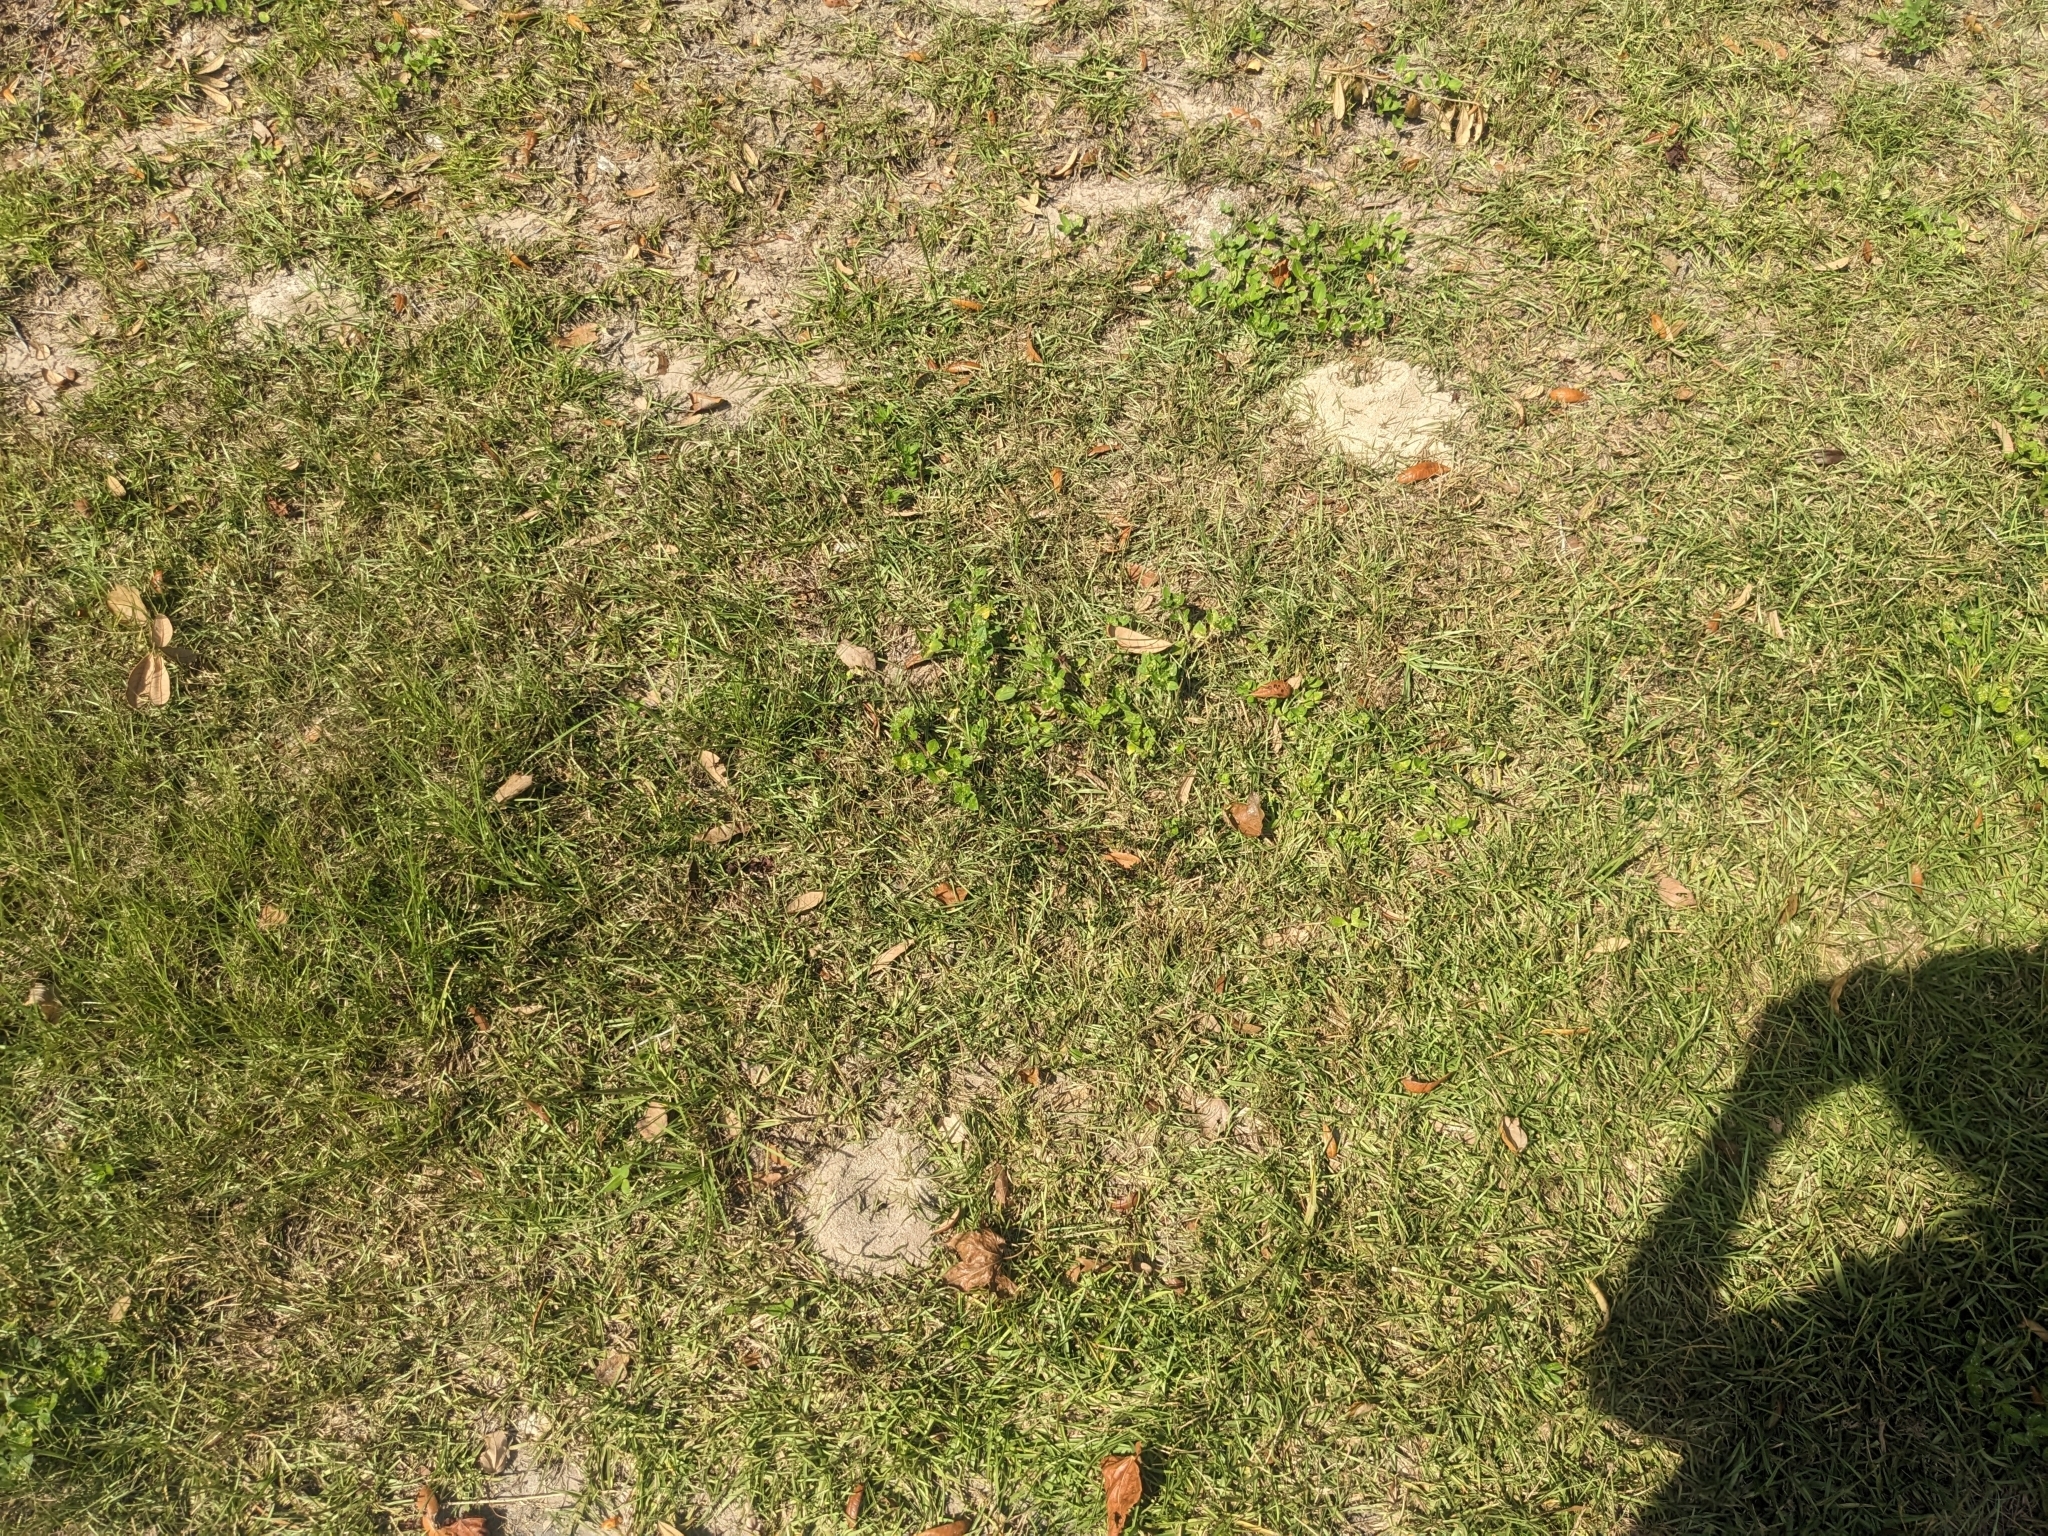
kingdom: Animalia
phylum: Arthropoda
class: Insecta
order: Hymenoptera
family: Formicidae
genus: Dorymyrmex
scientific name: Dorymyrmex bureni
